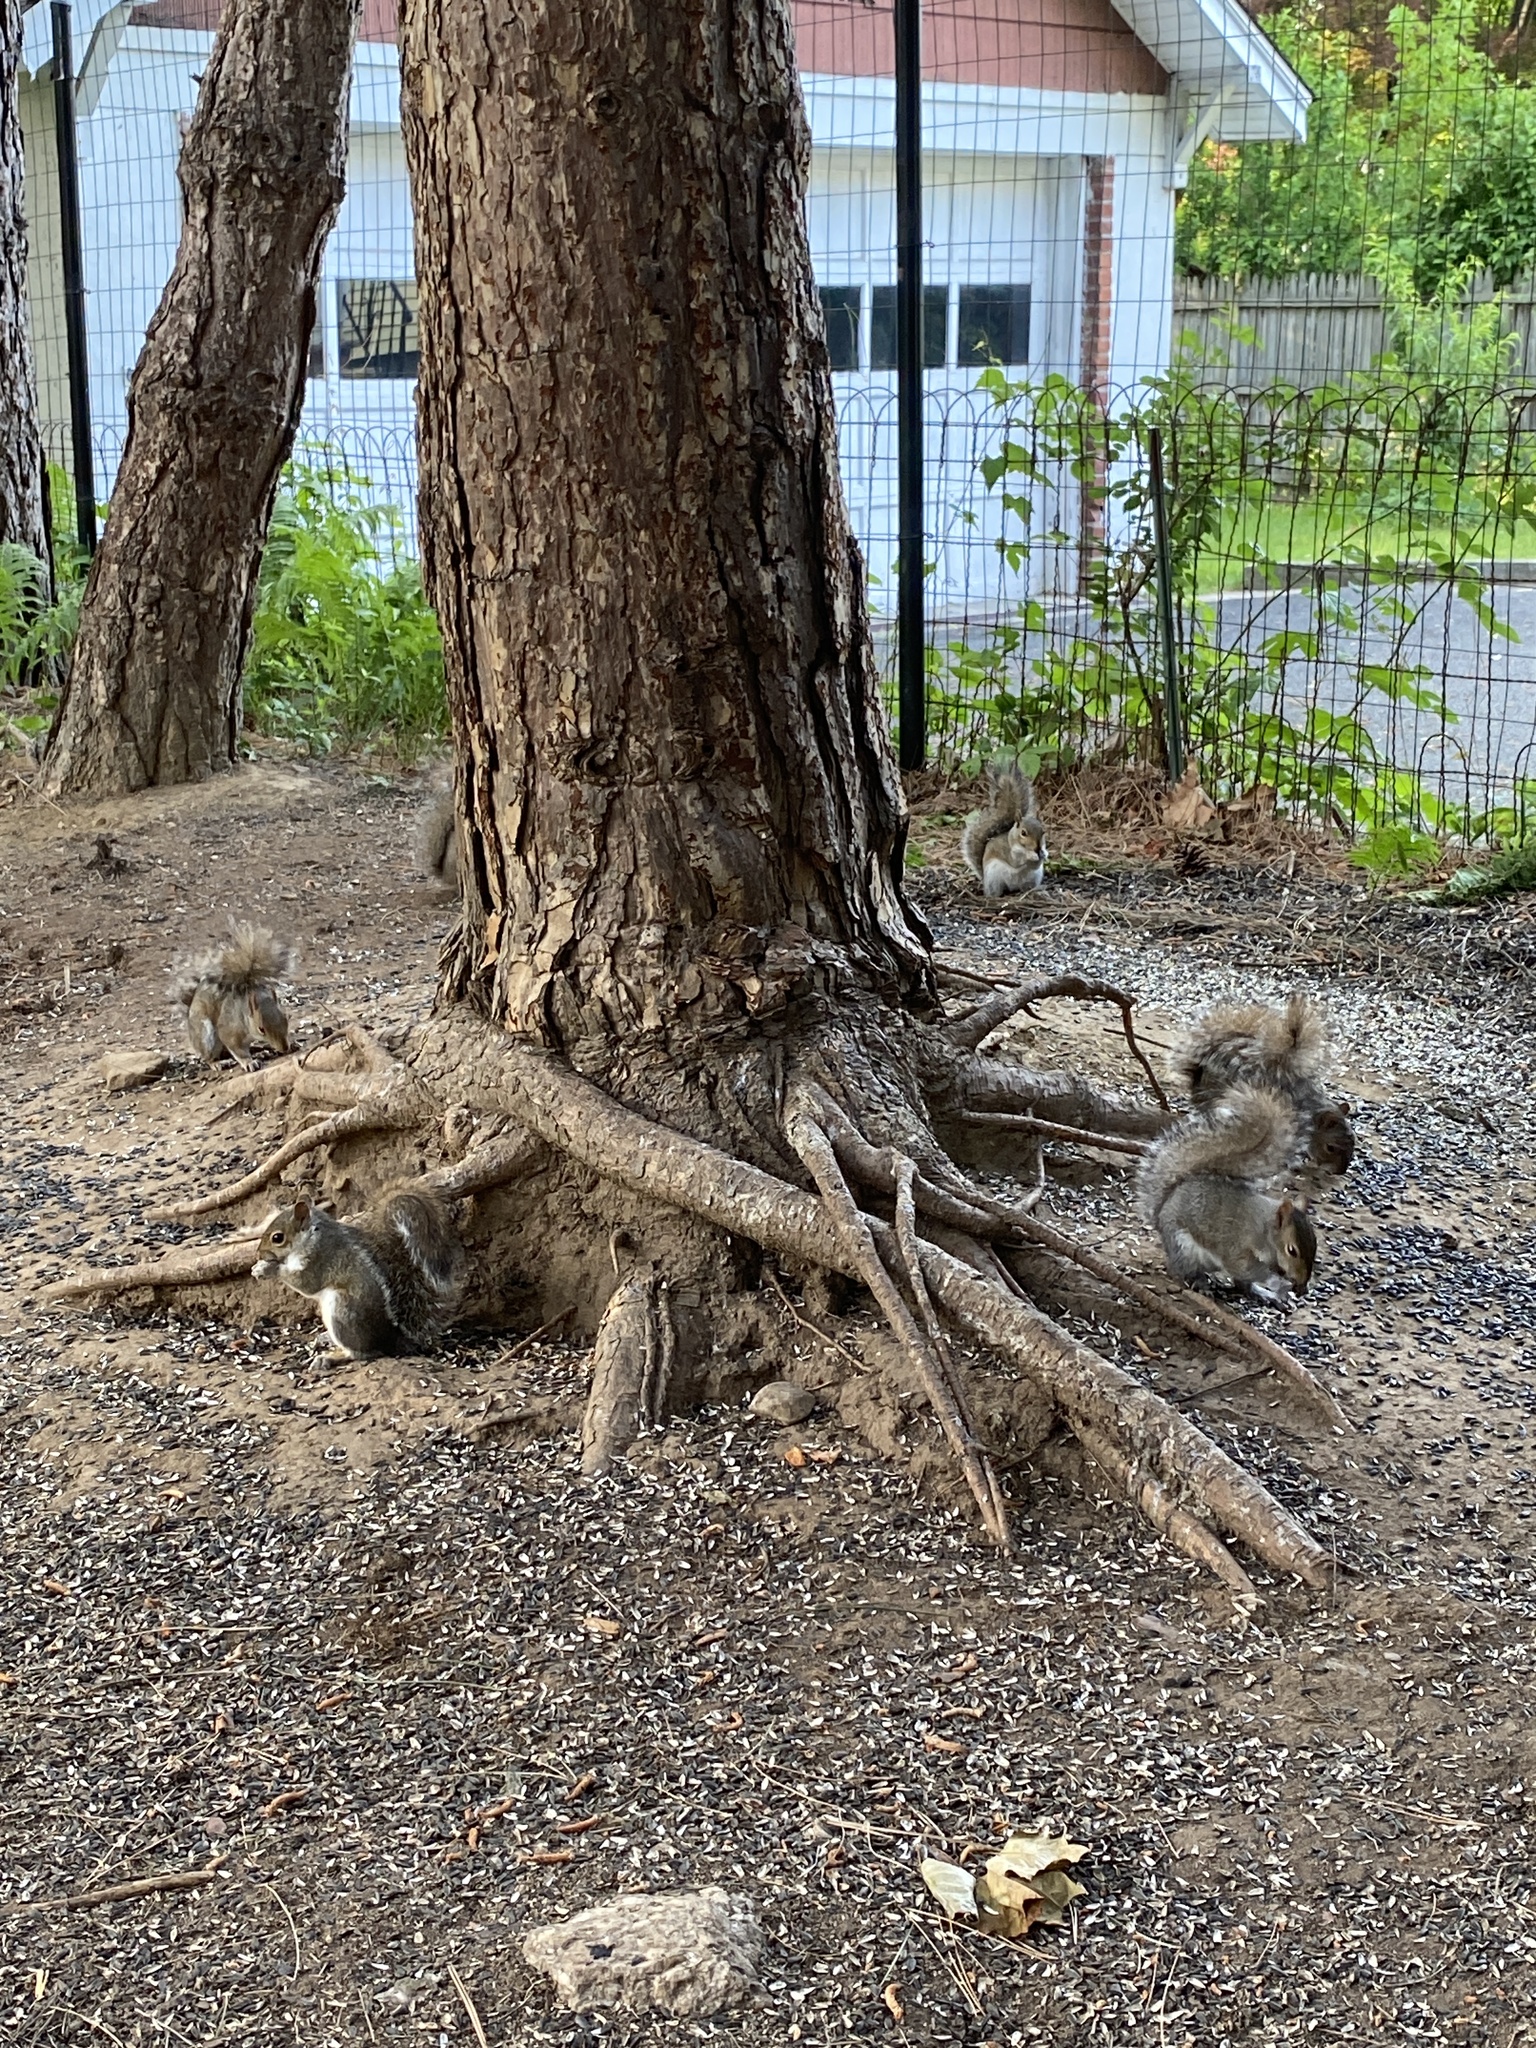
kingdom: Animalia
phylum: Chordata
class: Mammalia
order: Rodentia
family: Sciuridae
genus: Sciurus
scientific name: Sciurus carolinensis
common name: Eastern gray squirrel
